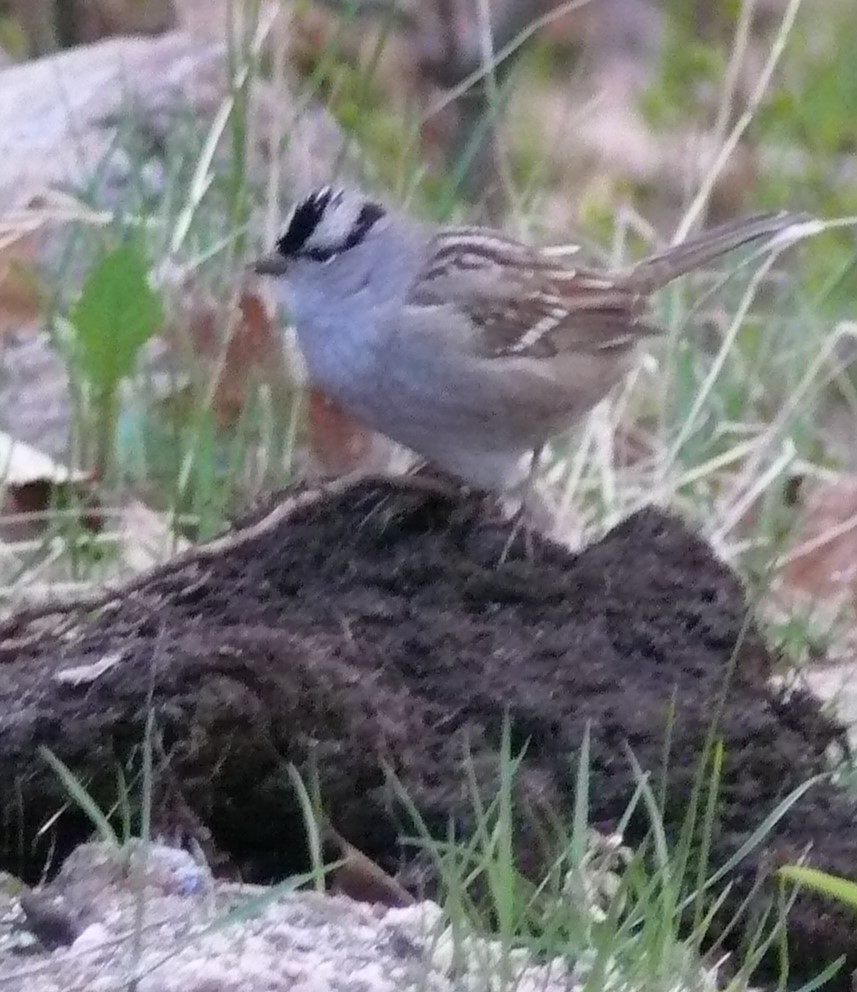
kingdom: Animalia
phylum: Chordata
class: Aves
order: Passeriformes
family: Passerellidae
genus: Zonotrichia
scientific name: Zonotrichia leucophrys
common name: White-crowned sparrow
